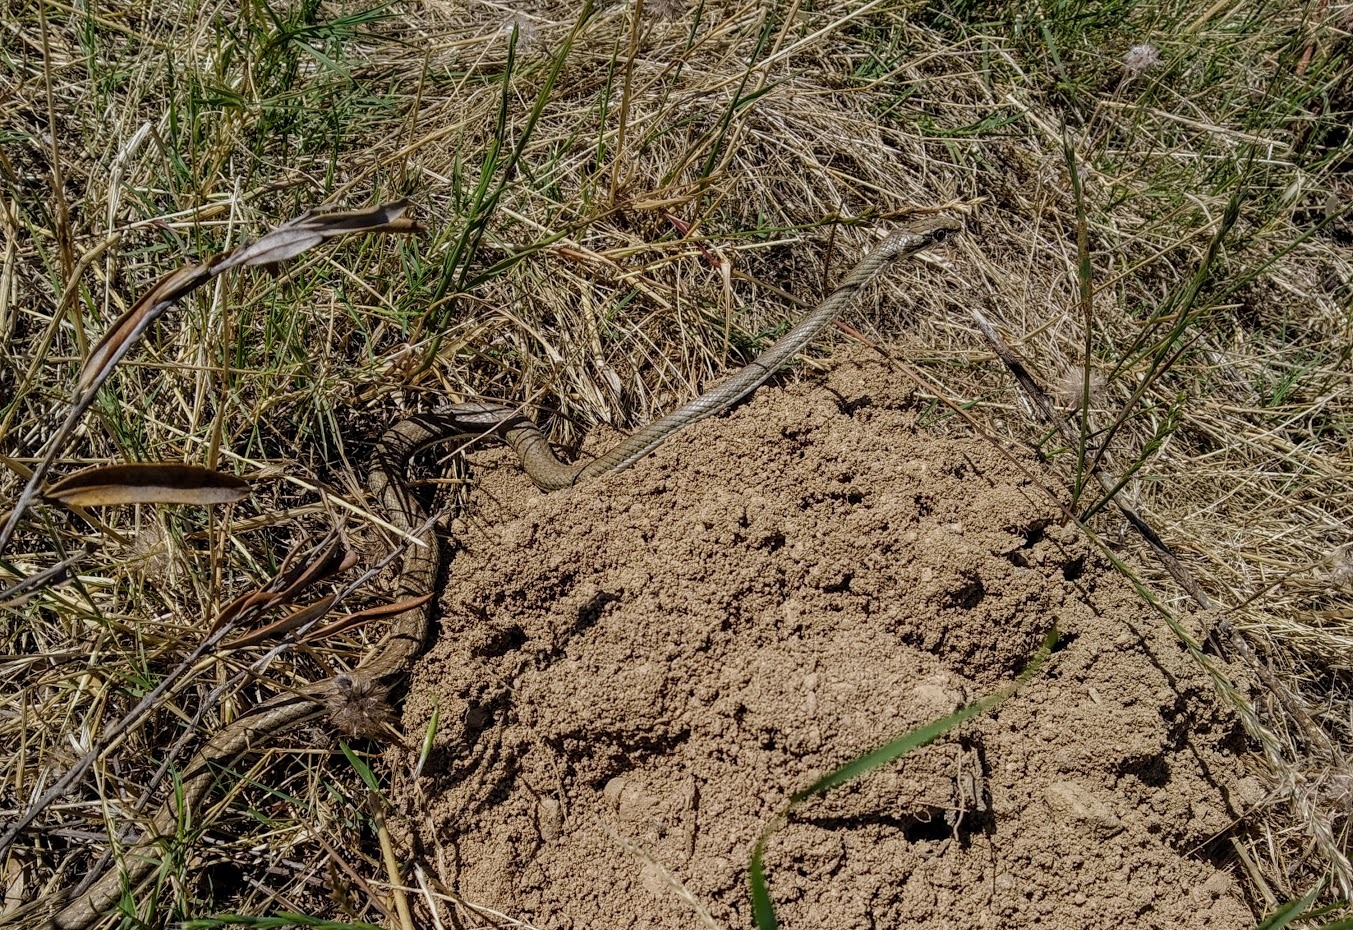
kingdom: Animalia
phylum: Chordata
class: Squamata
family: Psammophiidae
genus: Psammophis
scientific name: Psammophis notostictus
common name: Karoo sand snake
